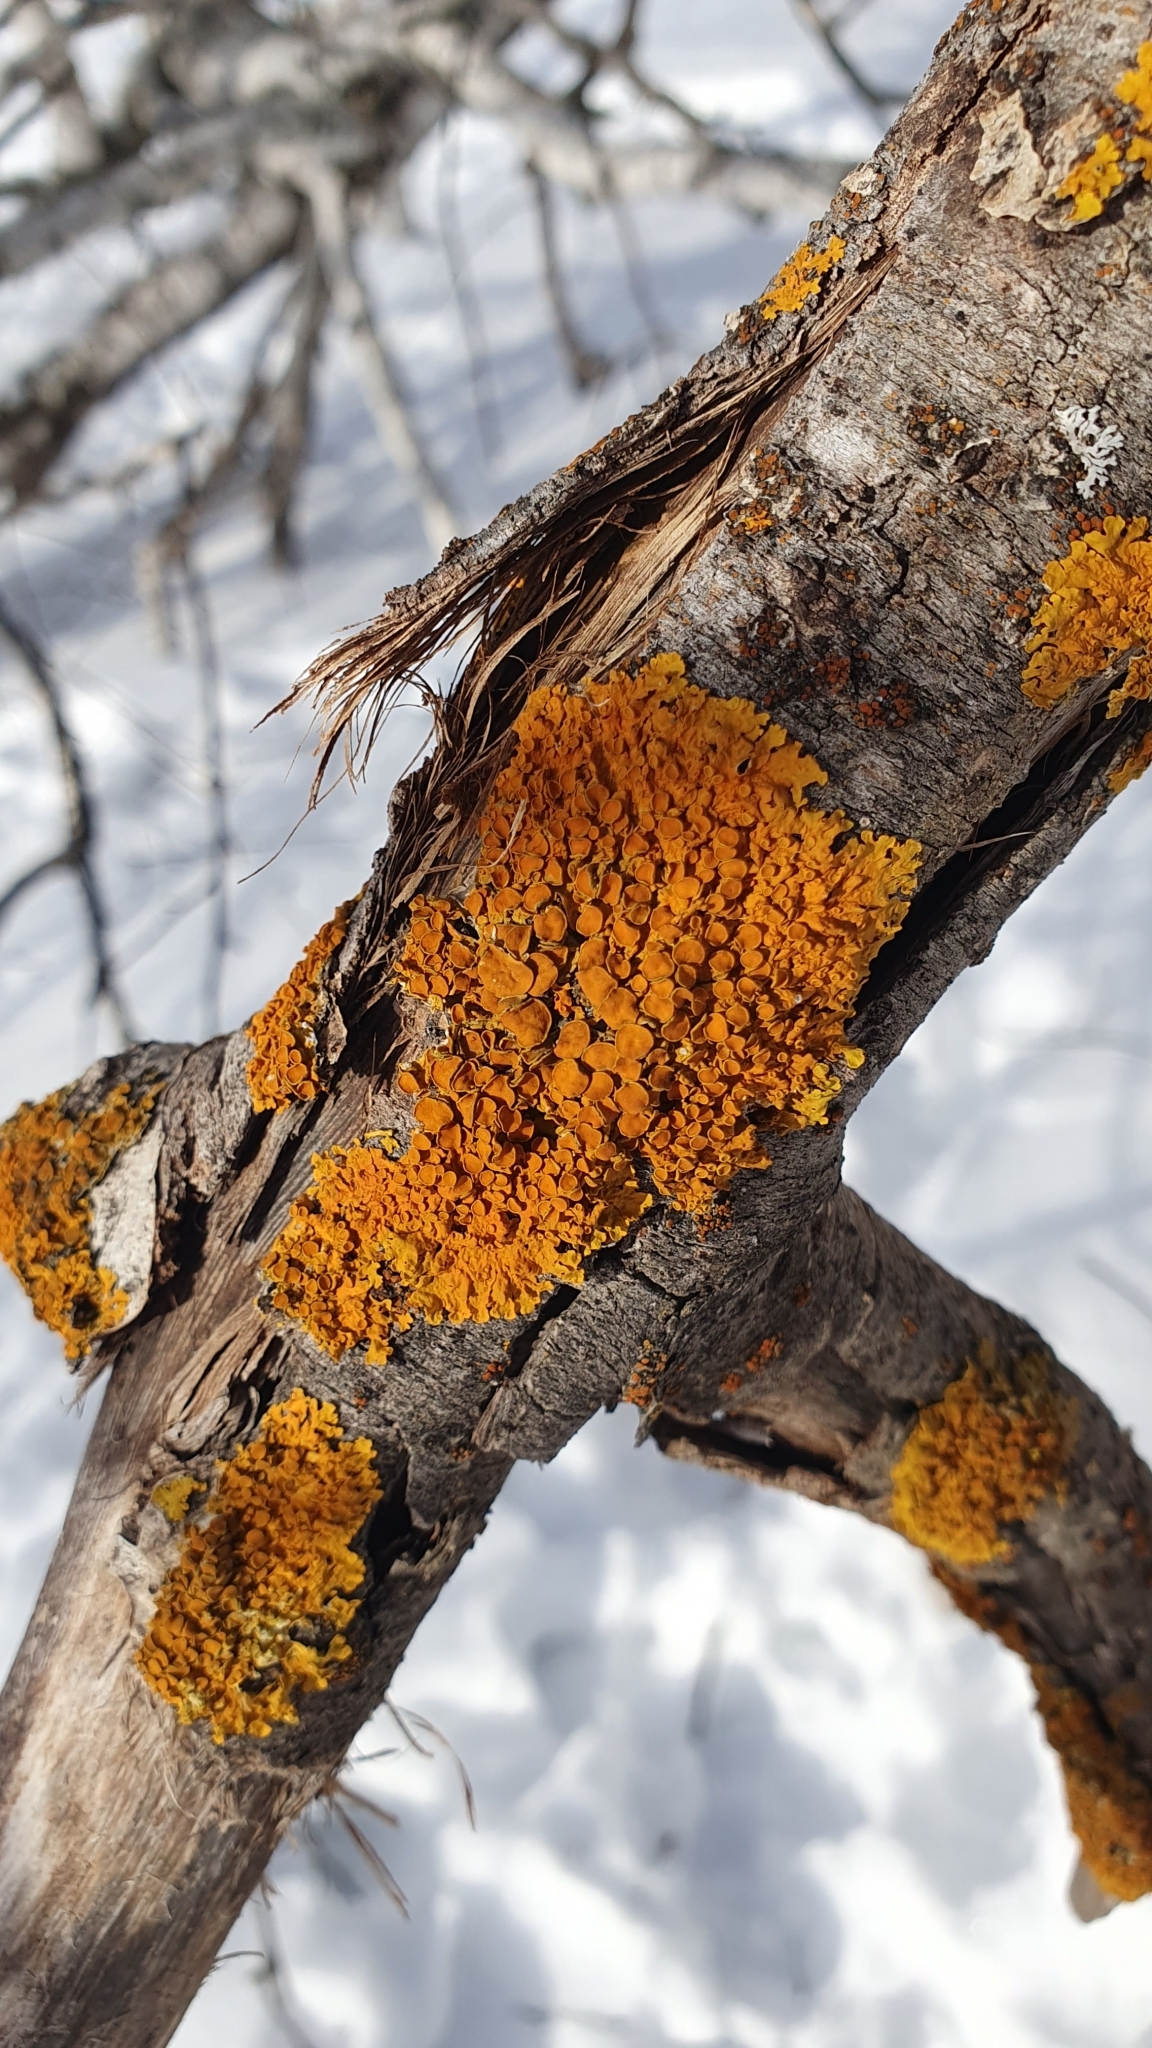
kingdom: Fungi
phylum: Ascomycota
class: Lecanoromycetes
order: Teloschistales
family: Teloschistaceae
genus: Xanthoria
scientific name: Xanthoria parietina
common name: Common orange lichen
